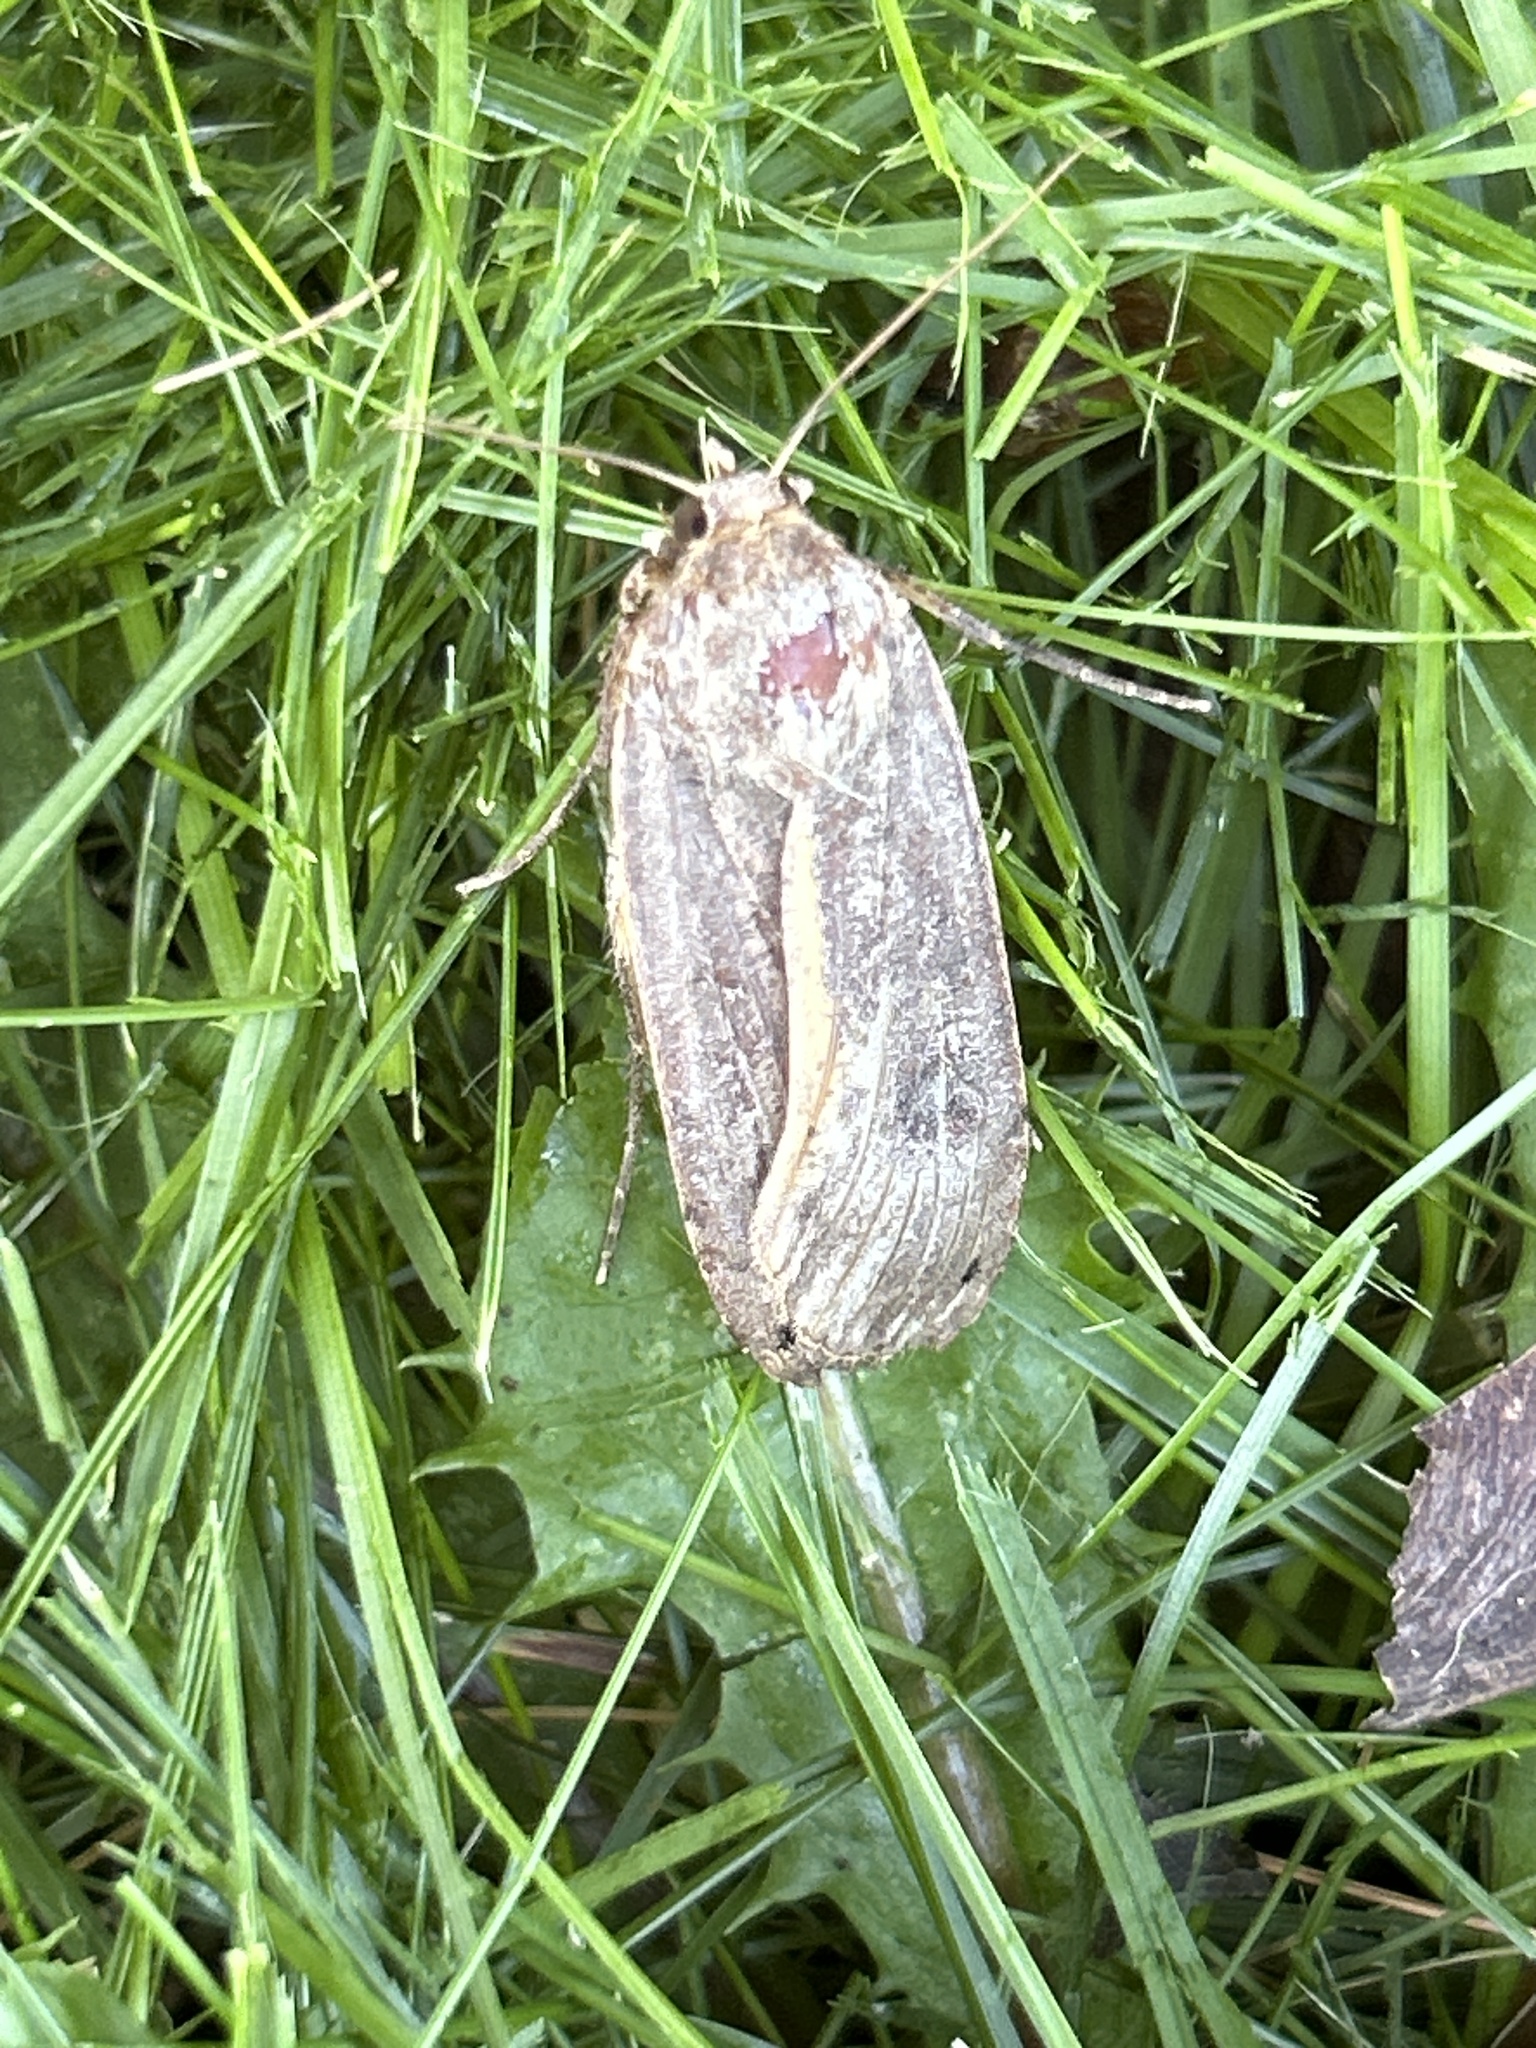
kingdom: Animalia
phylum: Arthropoda
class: Insecta
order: Lepidoptera
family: Noctuidae
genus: Noctua
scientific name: Noctua pronuba
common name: Large yellow underwing
